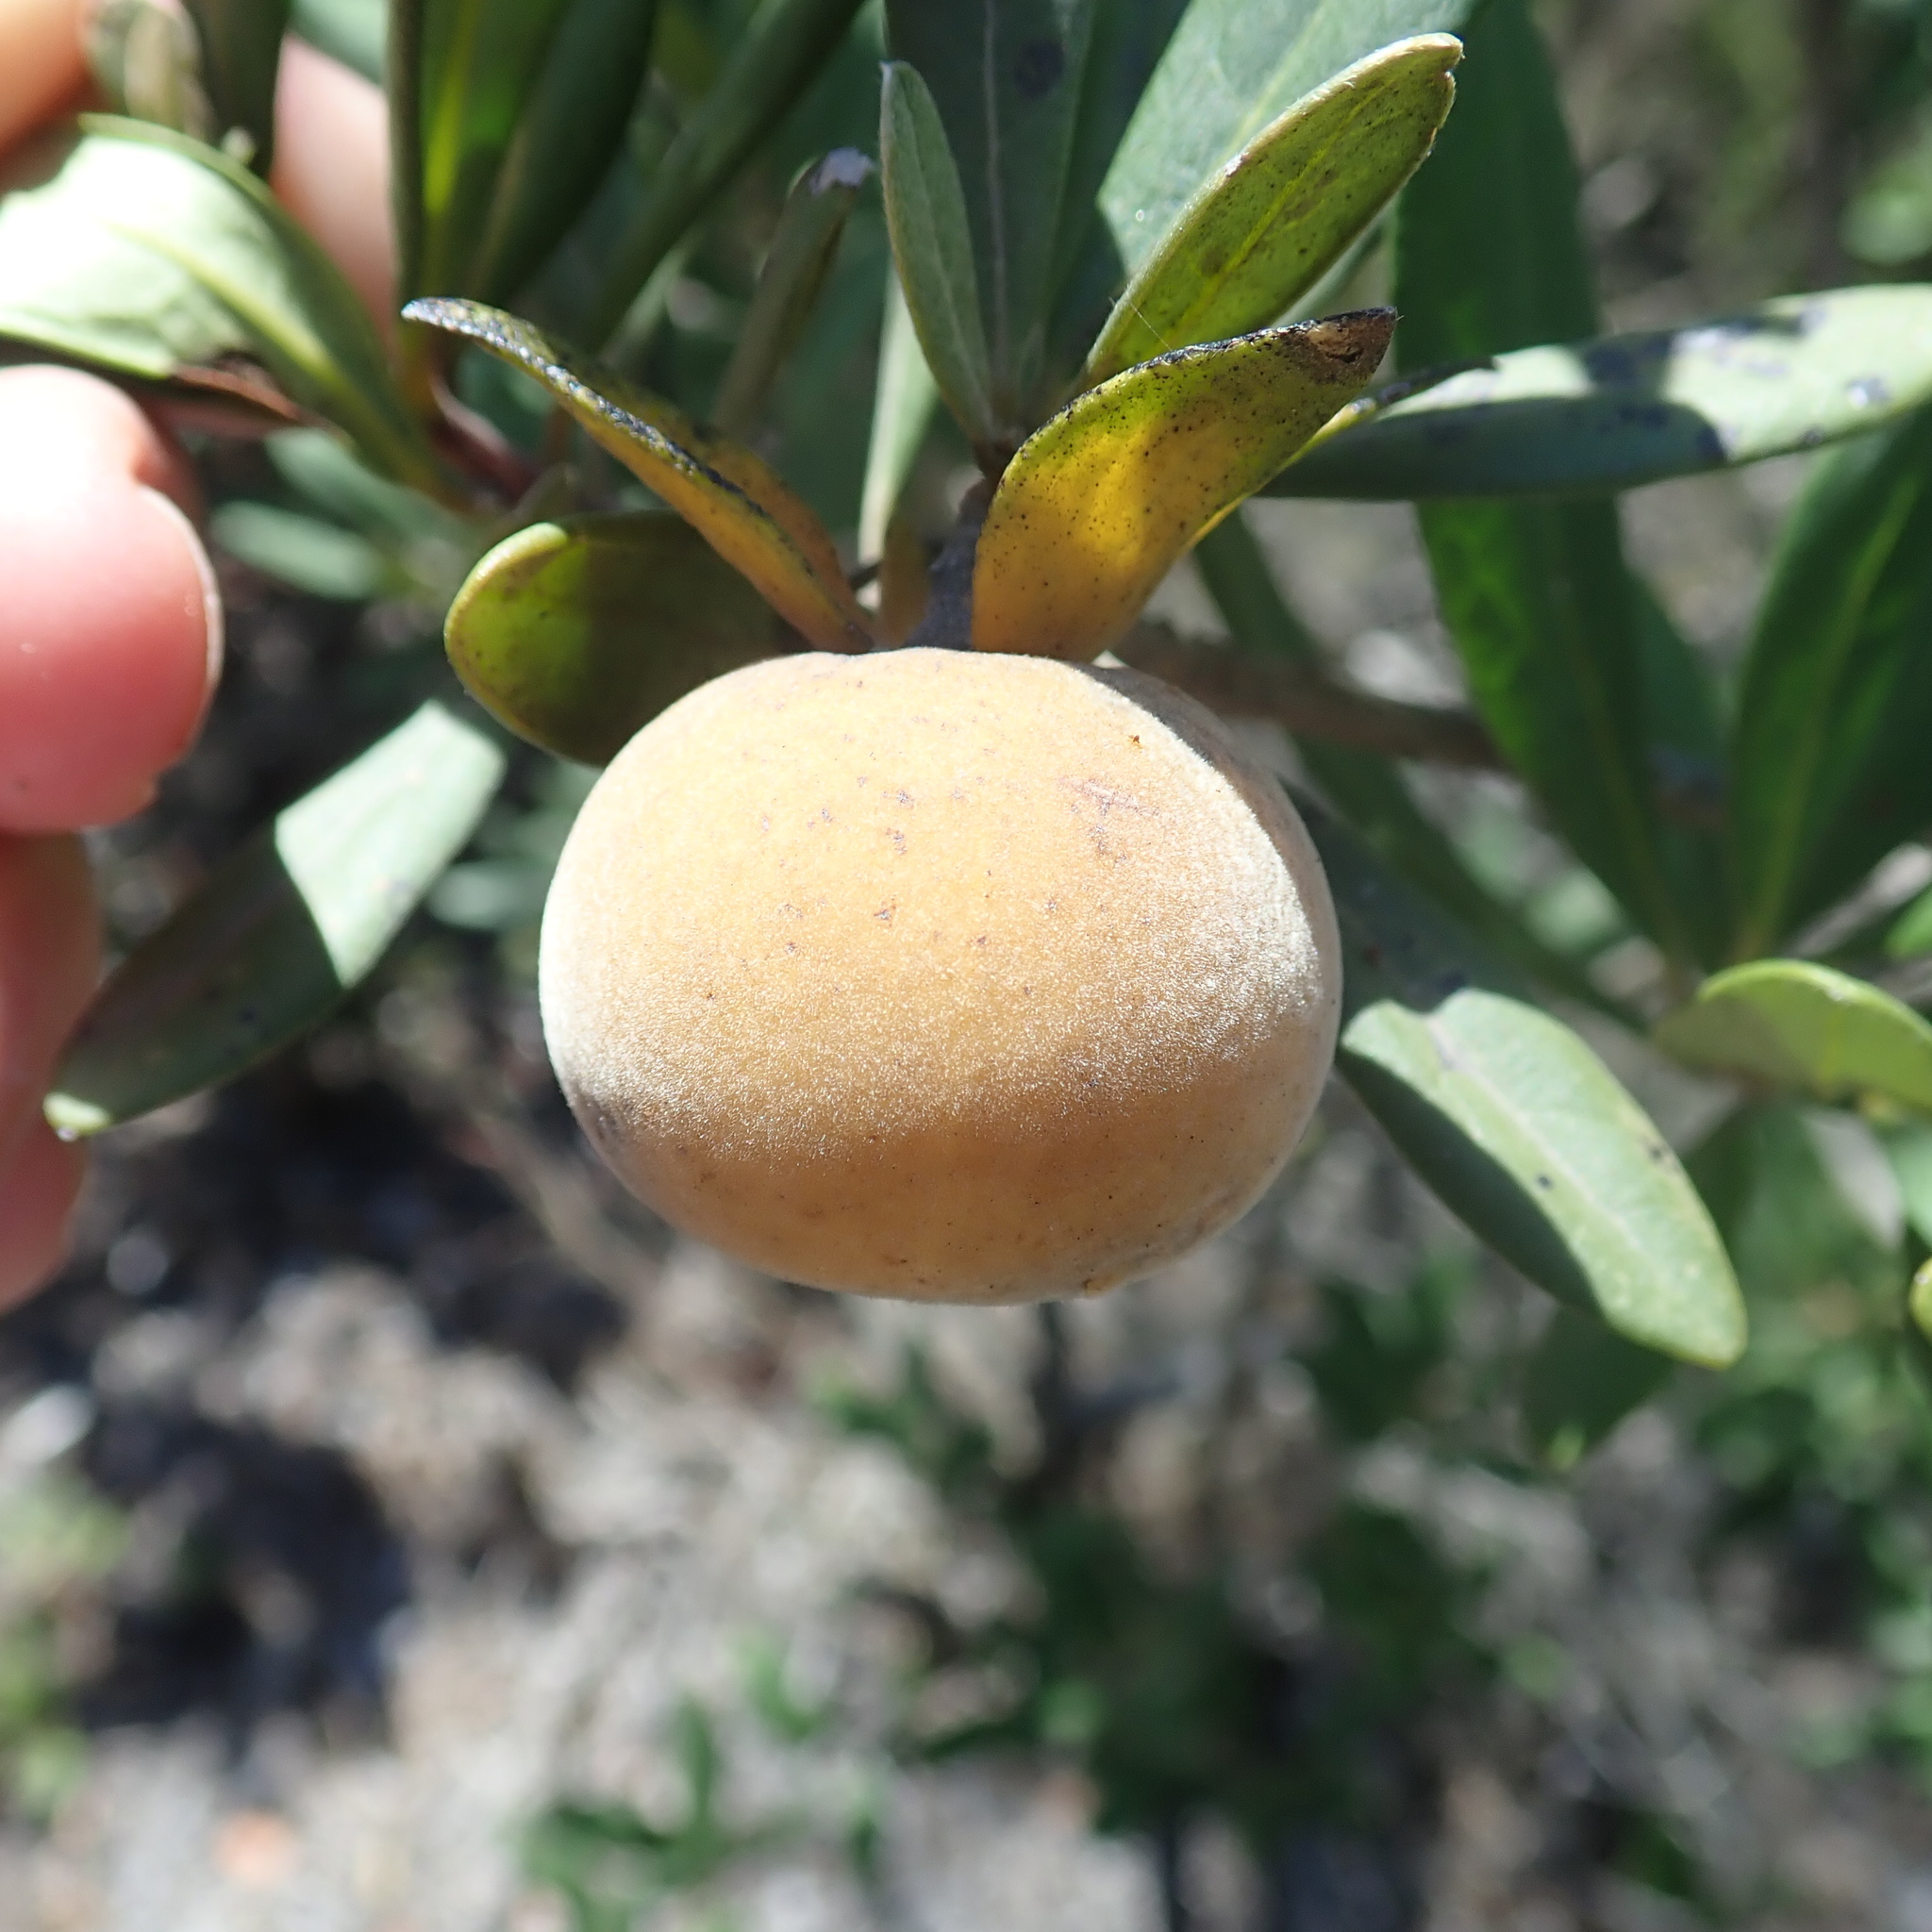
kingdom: Plantae
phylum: Tracheophyta
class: Magnoliopsida
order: Ericales
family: Ebenaceae
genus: Diospyros
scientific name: Diospyros dichrophylla
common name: Common star-apple
